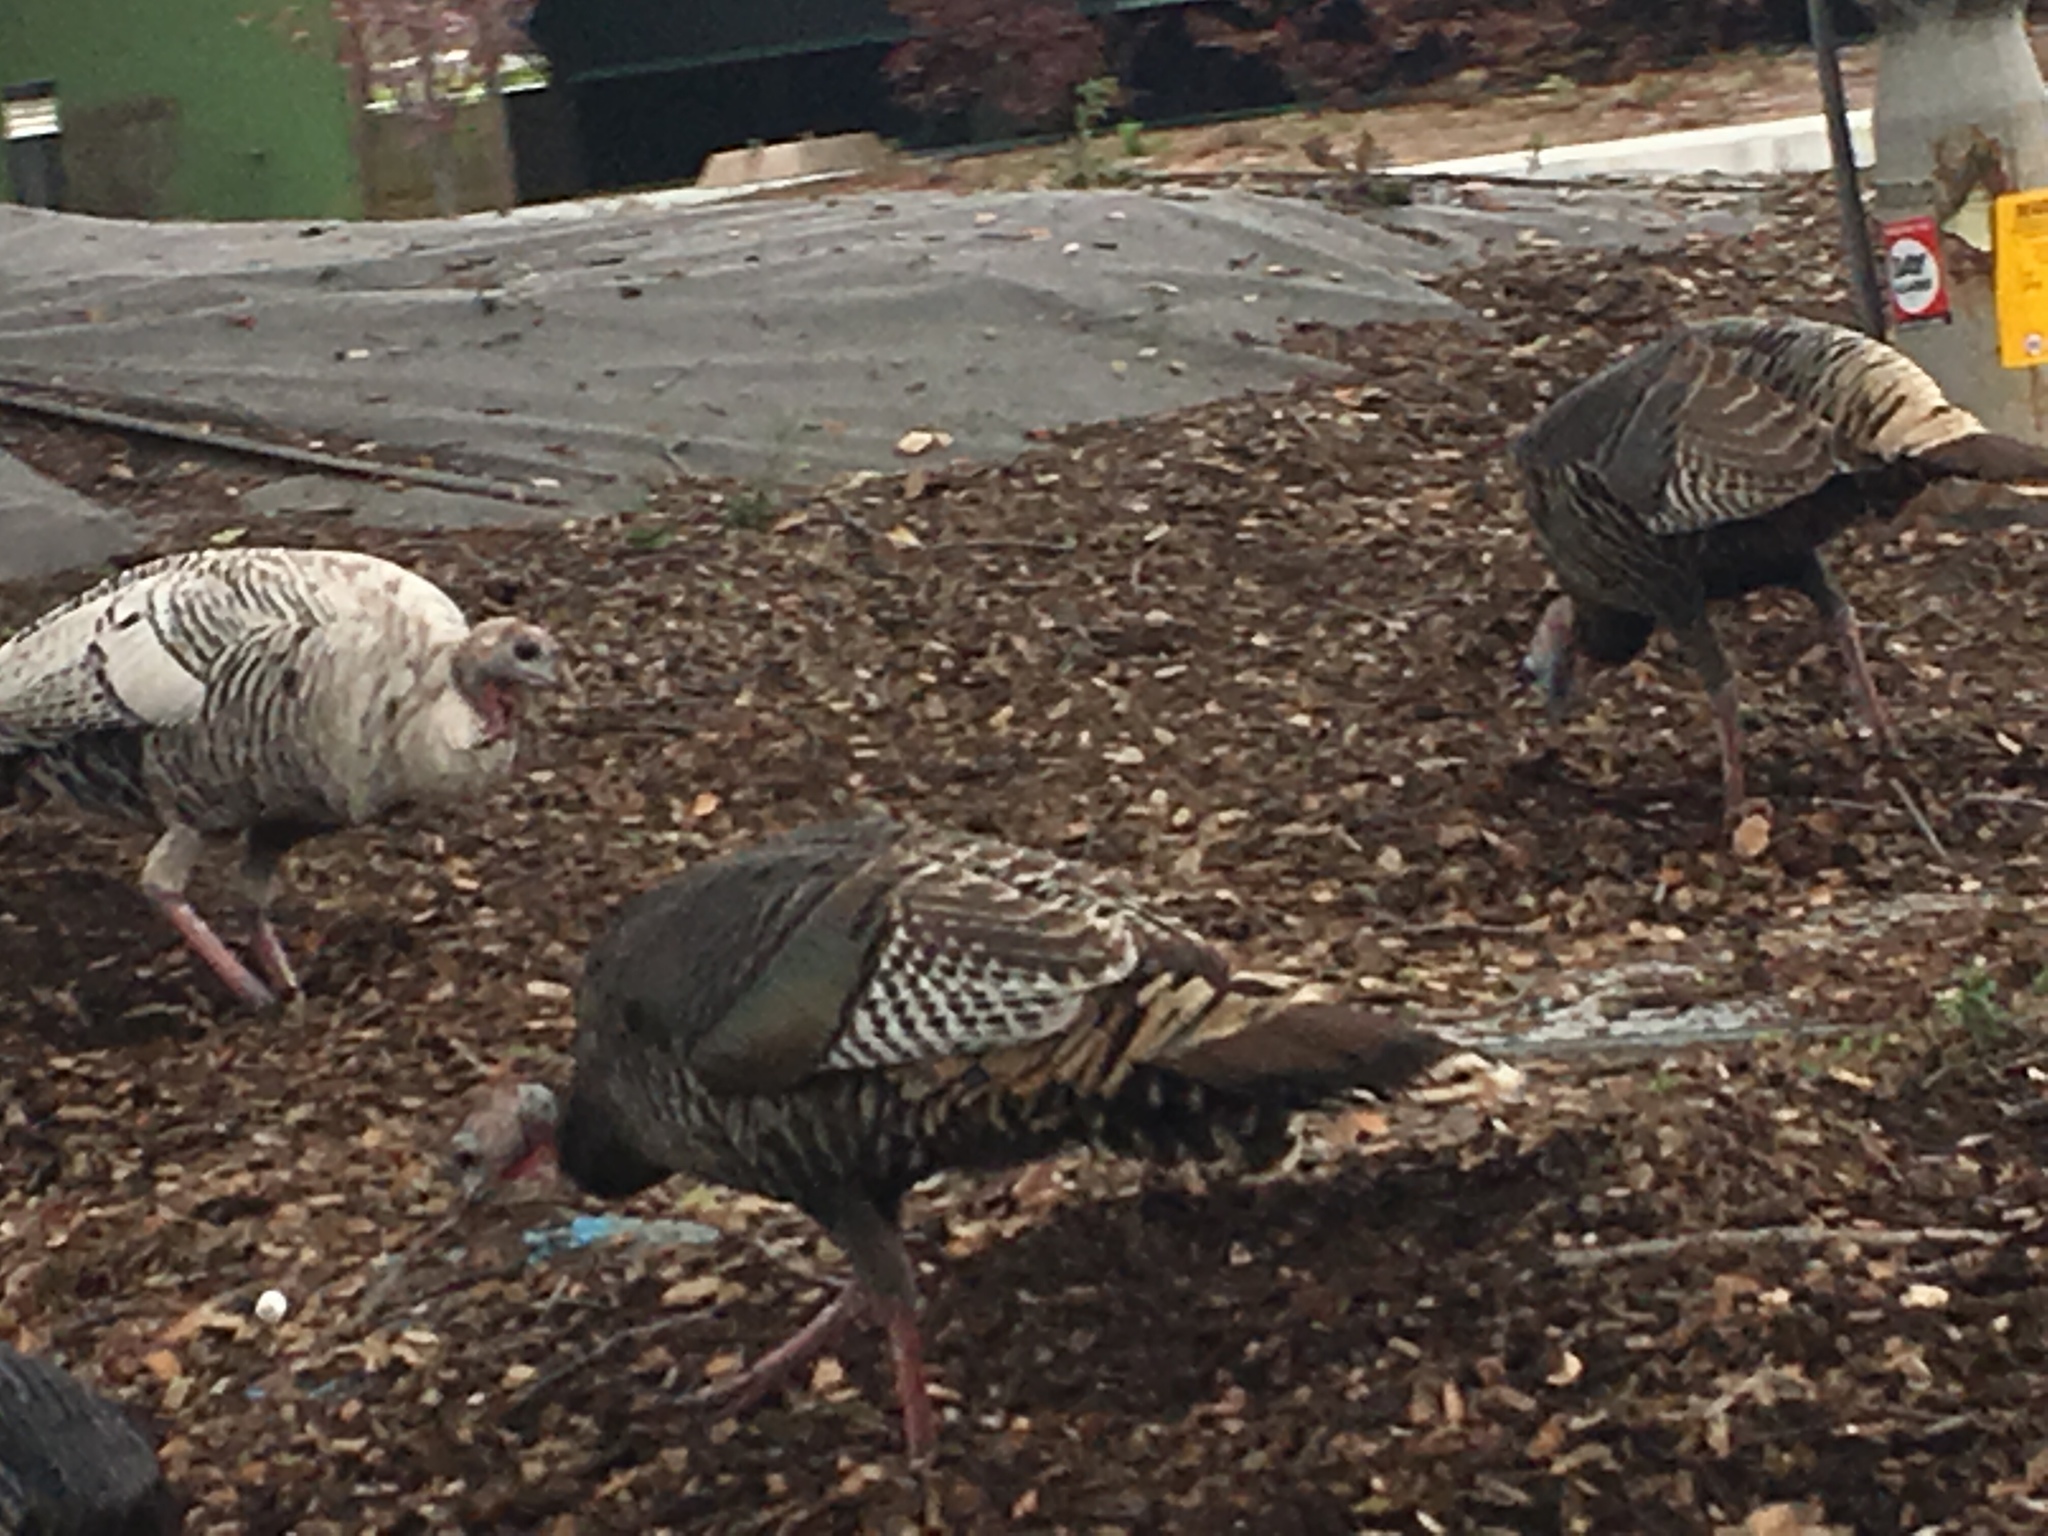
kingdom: Animalia
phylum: Chordata
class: Aves
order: Galliformes
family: Phasianidae
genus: Meleagris
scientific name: Meleagris gallopavo
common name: Wild turkey
